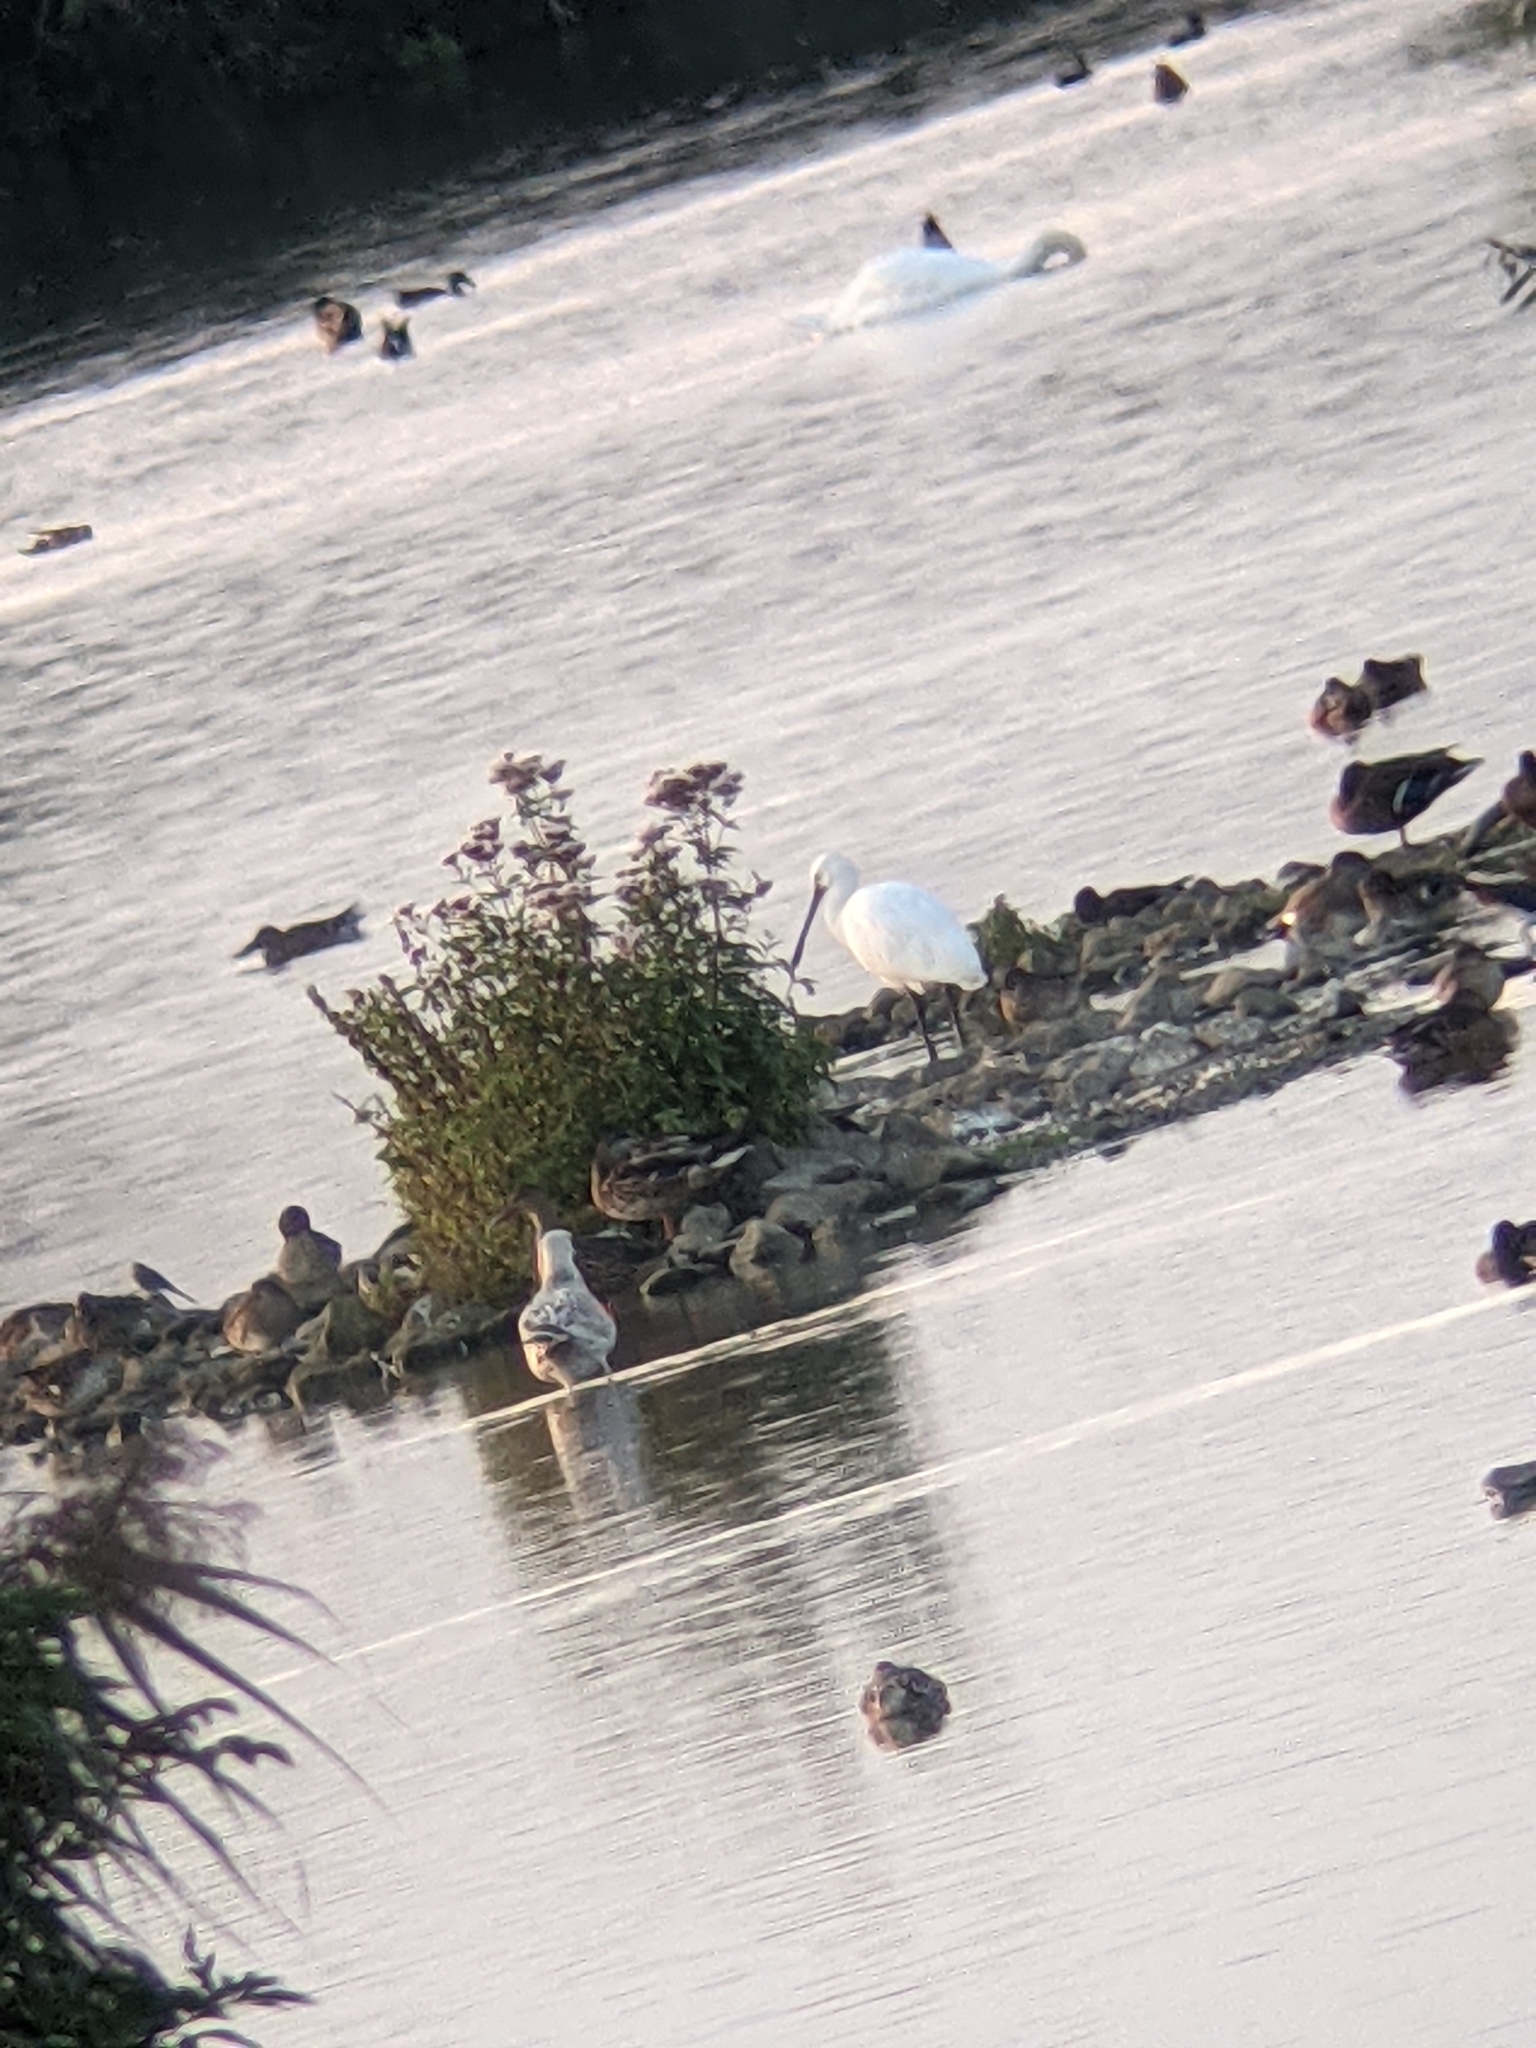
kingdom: Animalia
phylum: Chordata
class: Aves
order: Pelecaniformes
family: Threskiornithidae
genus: Platalea
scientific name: Platalea leucorodia
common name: Eurasian spoonbill
